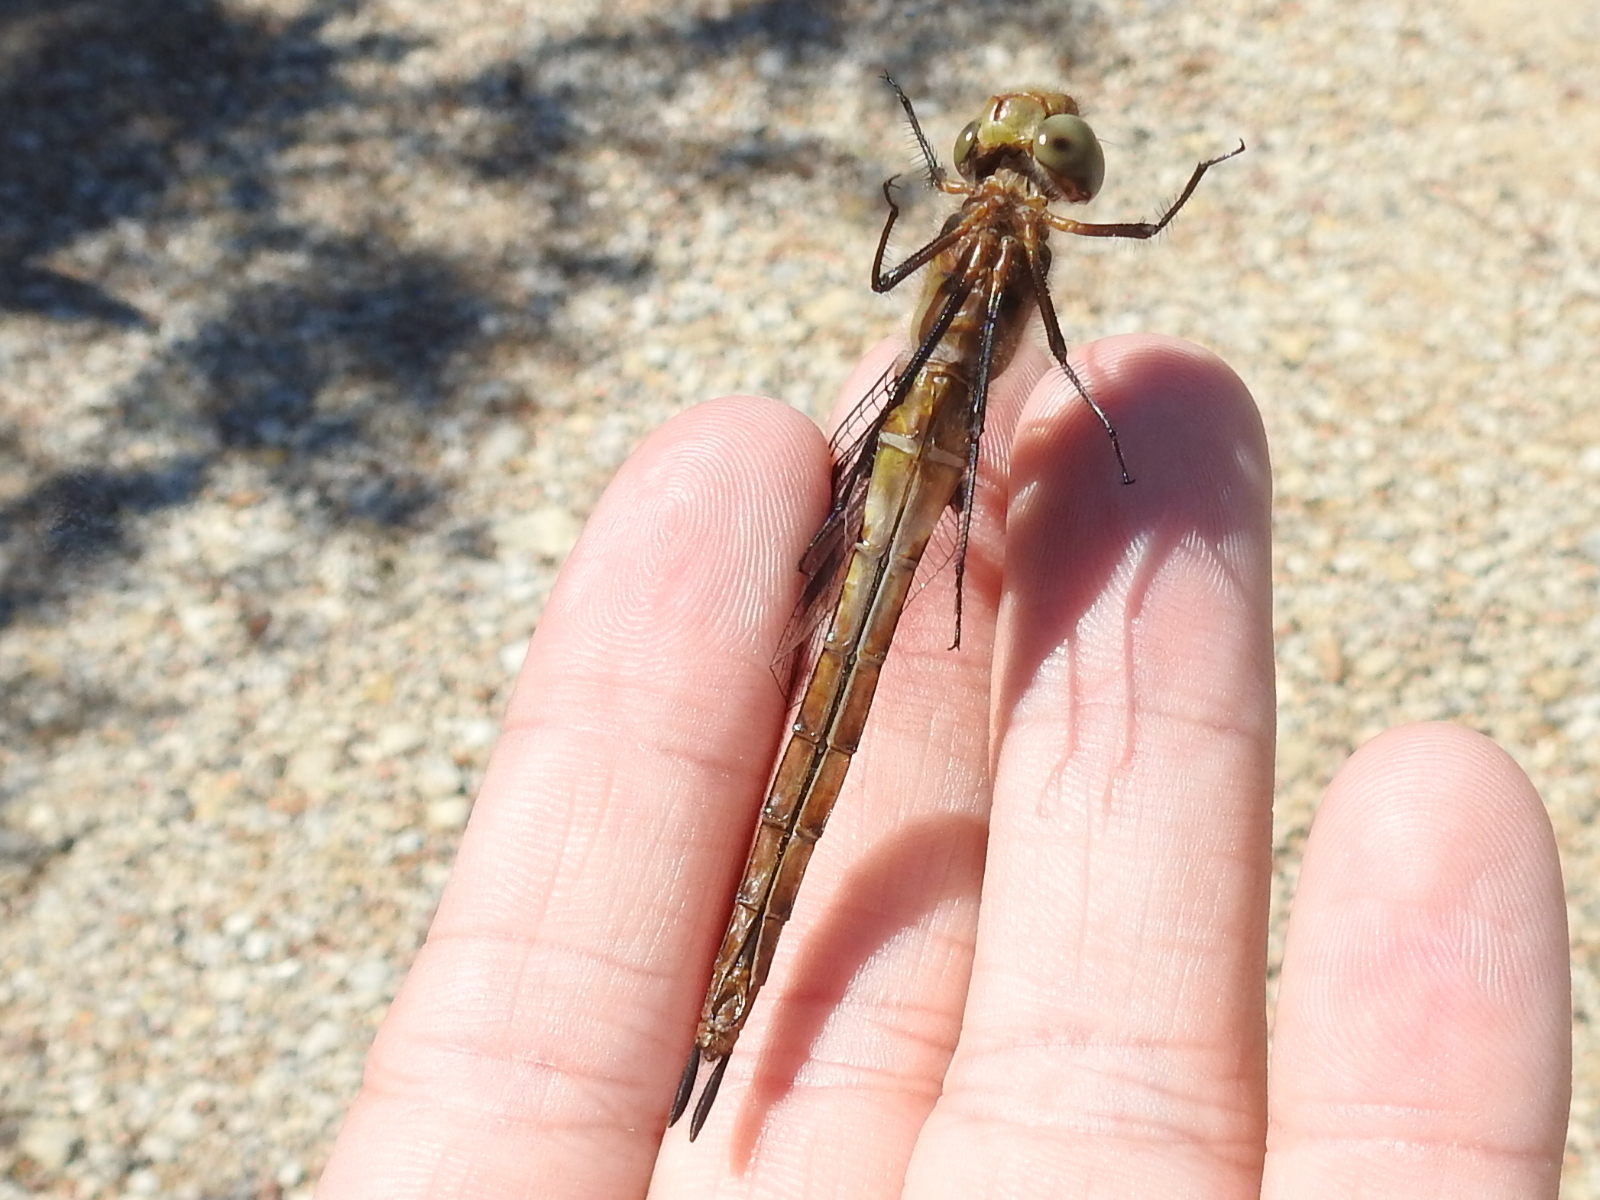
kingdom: Animalia
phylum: Arthropoda
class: Insecta
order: Odonata
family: Corduliidae
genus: Epitheca
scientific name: Epitheca princeps
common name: Prince baskettail
